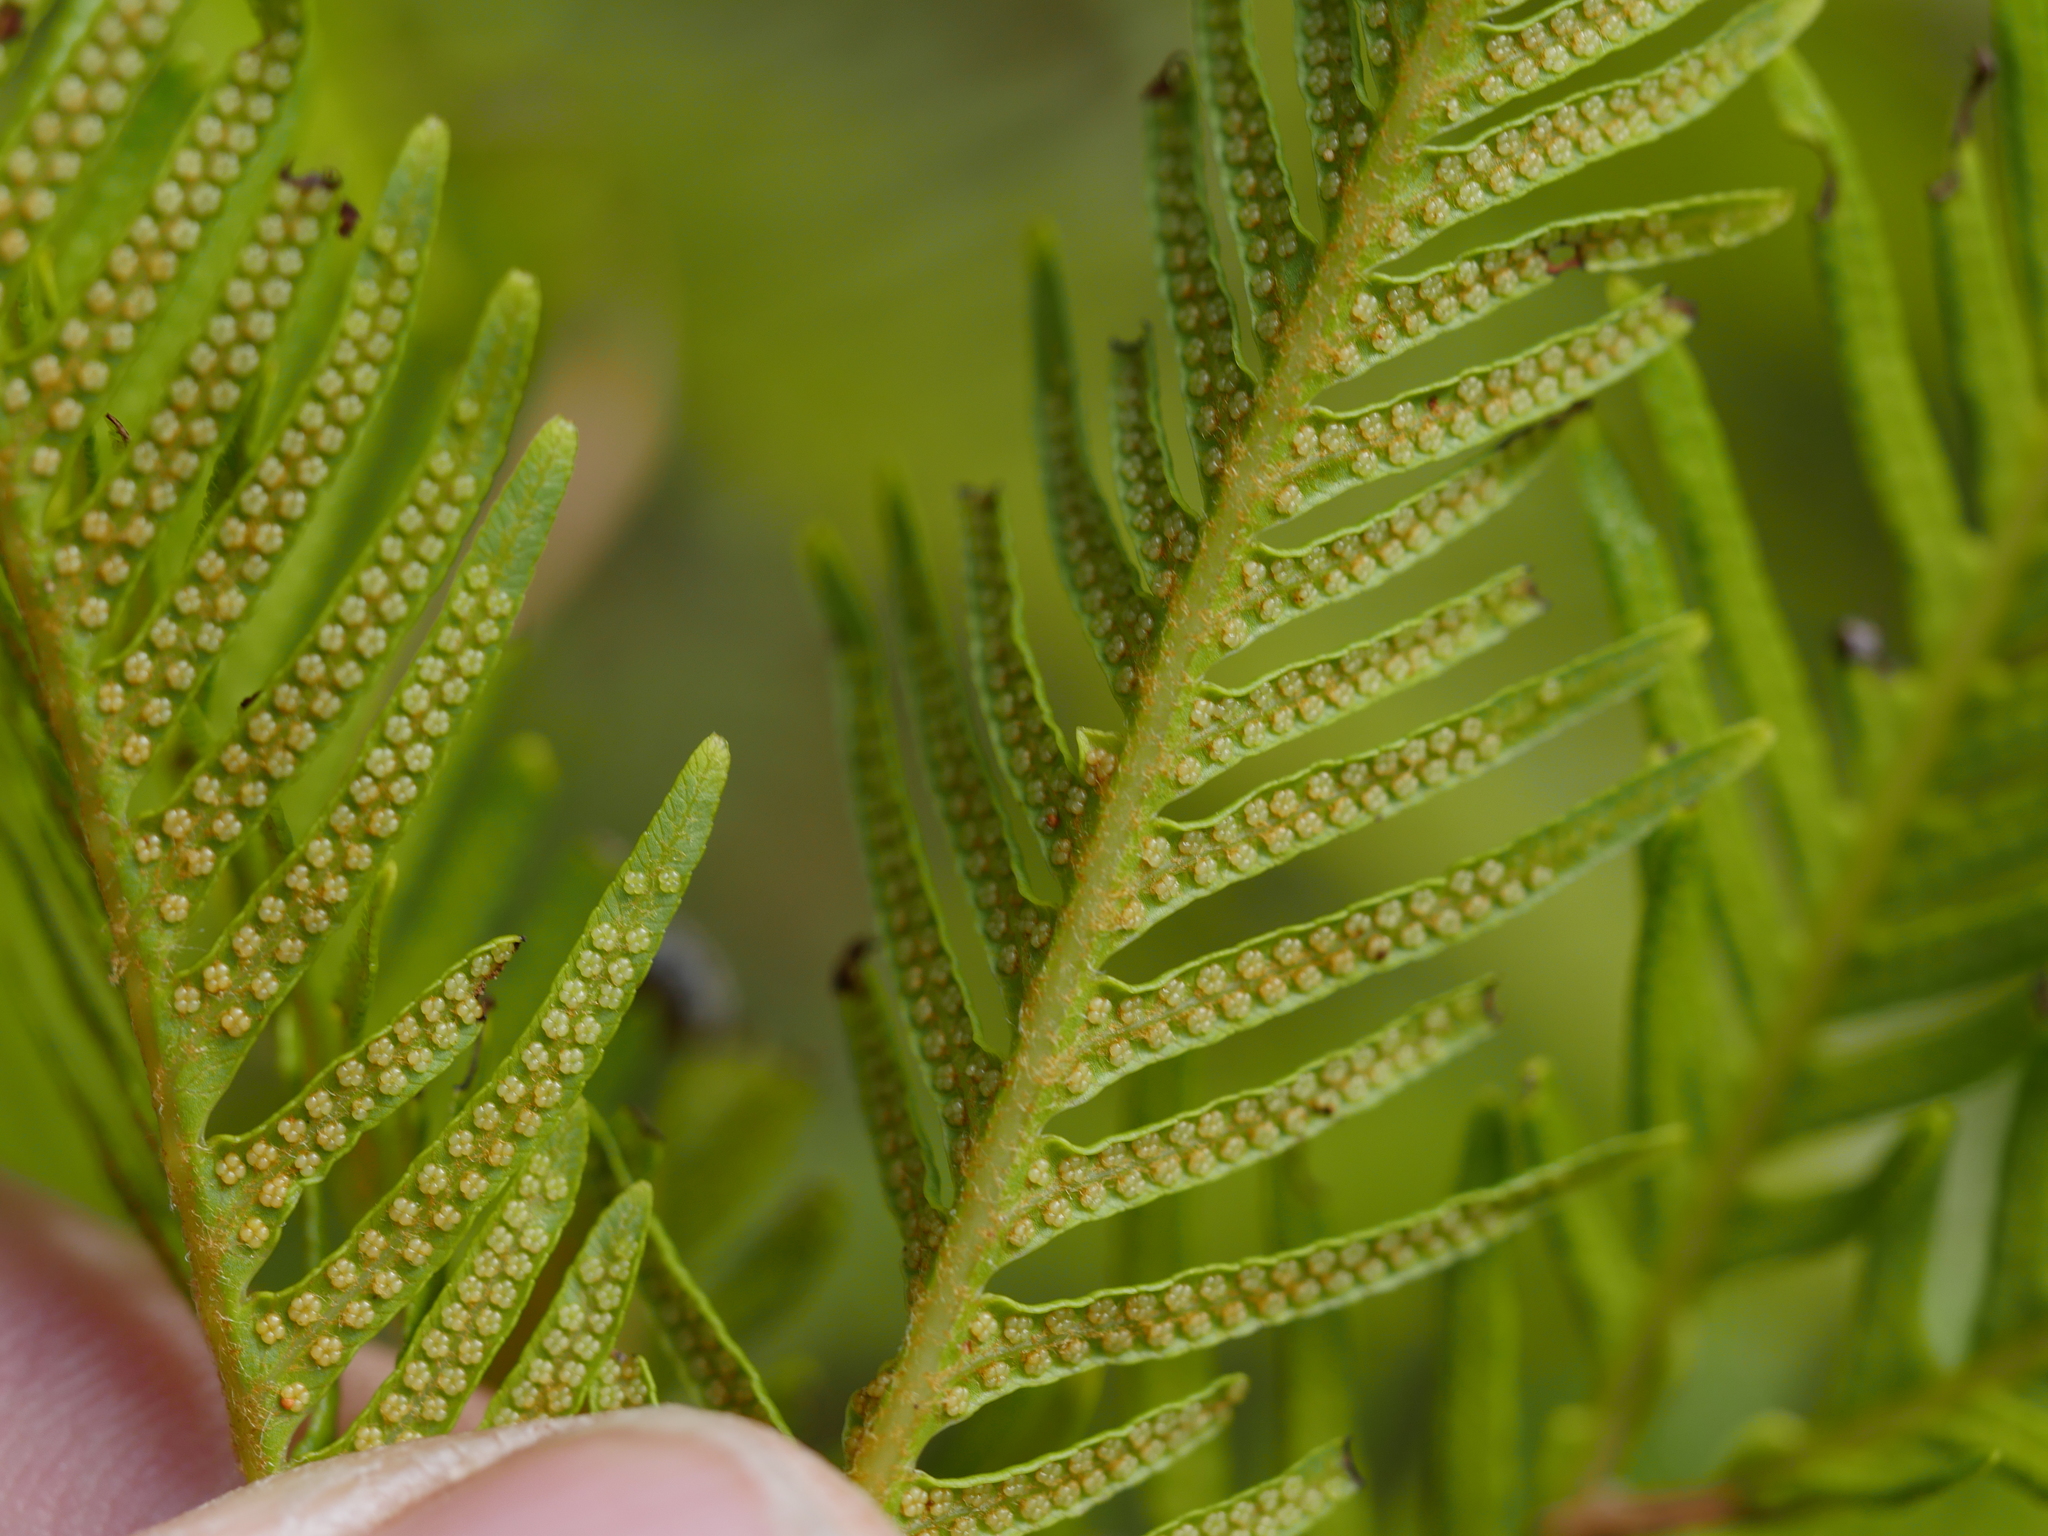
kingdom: Plantae
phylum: Tracheophyta
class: Polypodiopsida
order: Gleicheniales
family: Gleicheniaceae
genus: Sticherus
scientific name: Sticherus flabellatus
